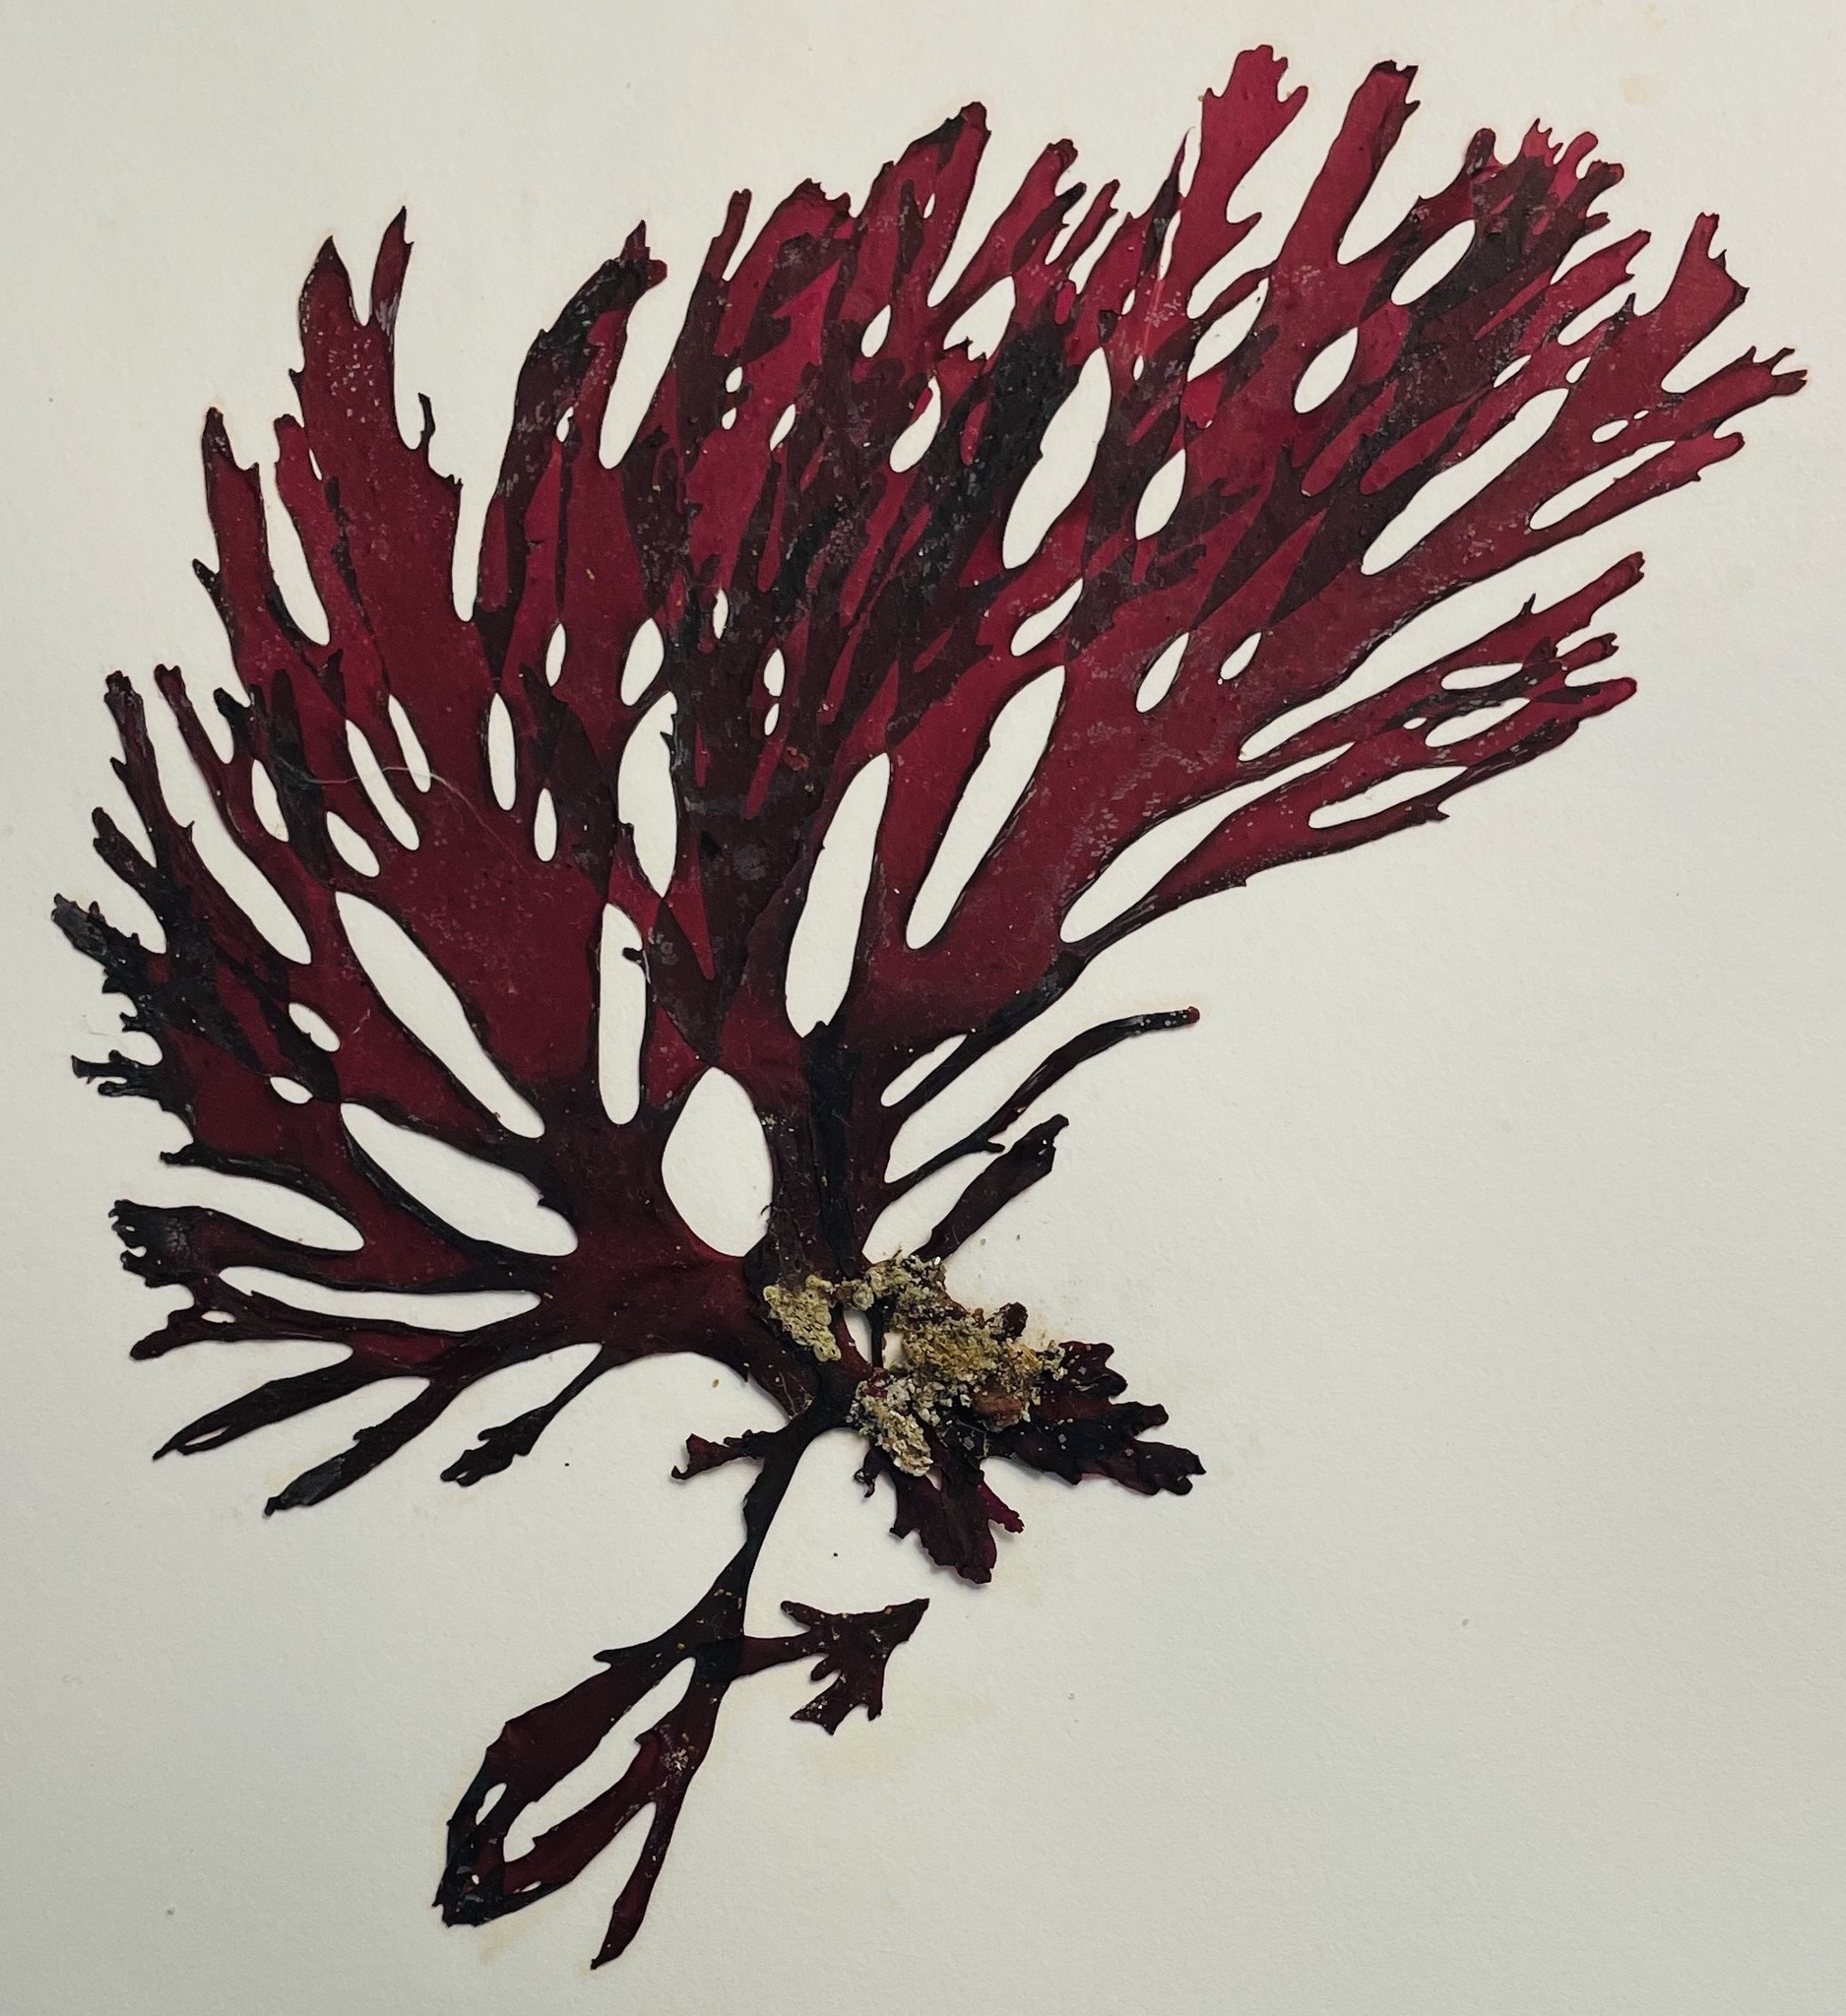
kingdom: Plantae
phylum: Rhodophyta
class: Florideophyceae
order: Gigartinales
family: Kallymeniaceae
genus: Callophyllis
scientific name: Callophyllis violacea
